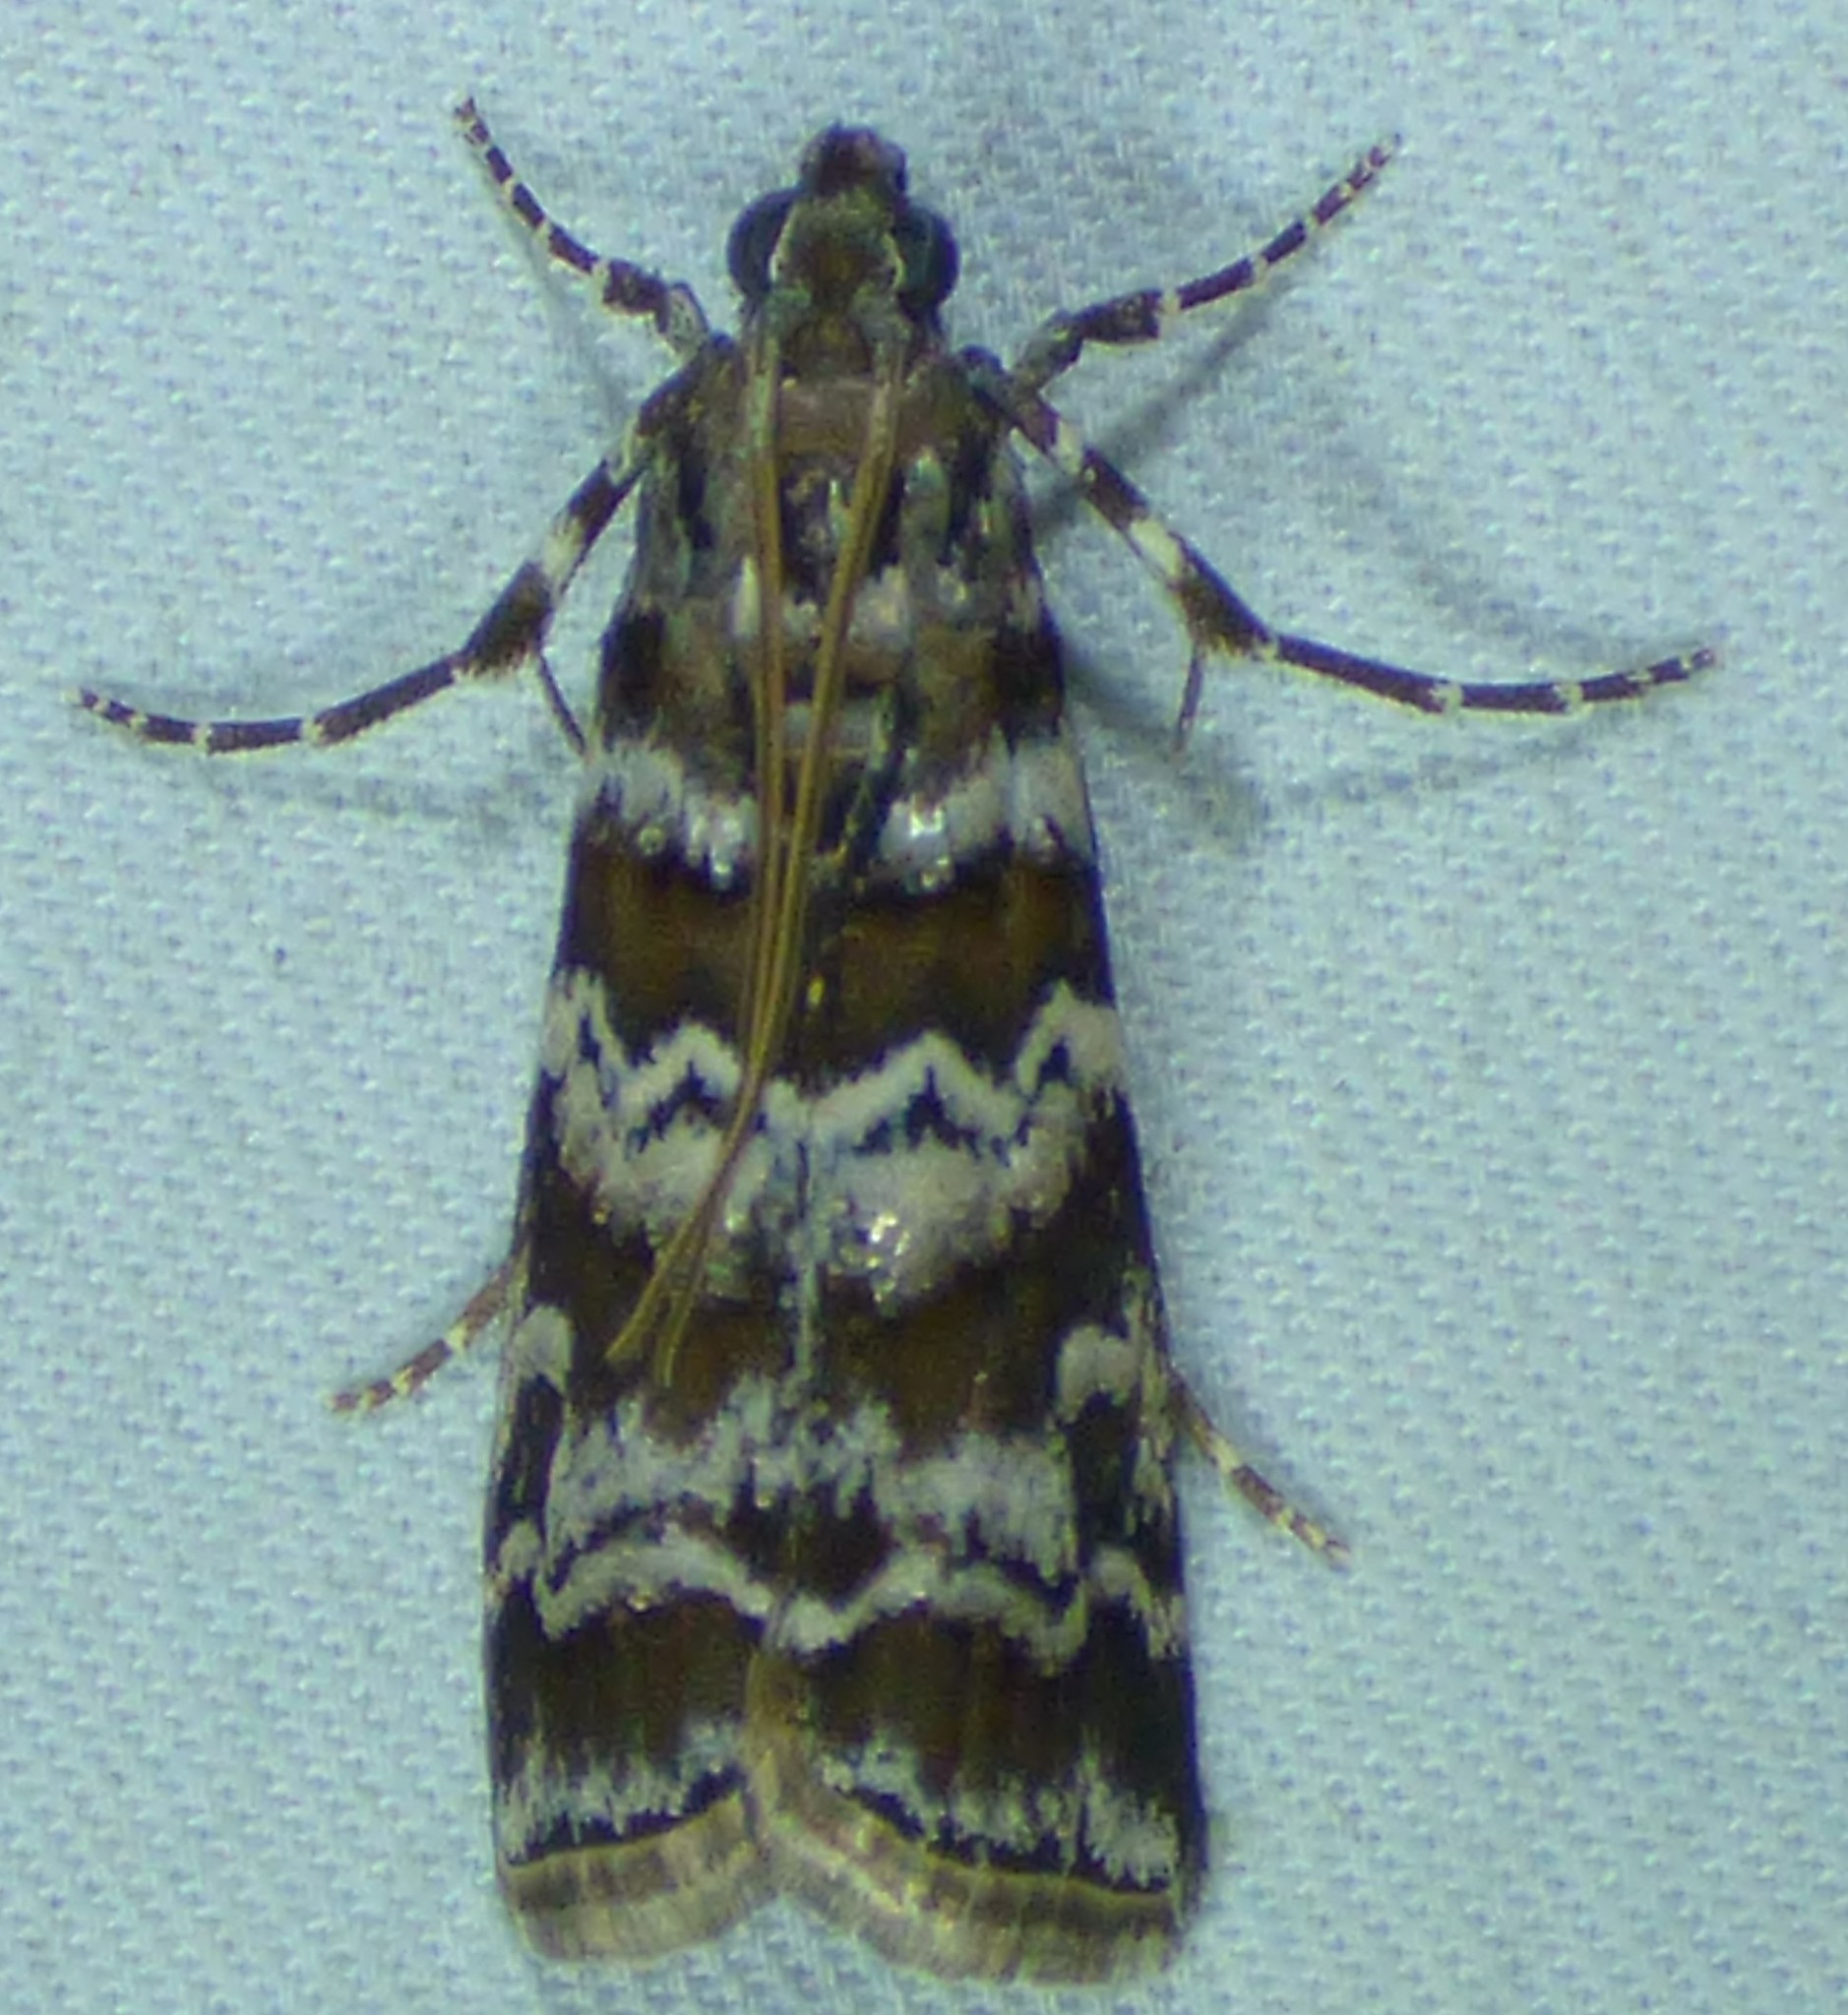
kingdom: Animalia
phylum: Arthropoda
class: Insecta
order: Lepidoptera
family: Pyralidae
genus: Dioryctria
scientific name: Dioryctria amatella
